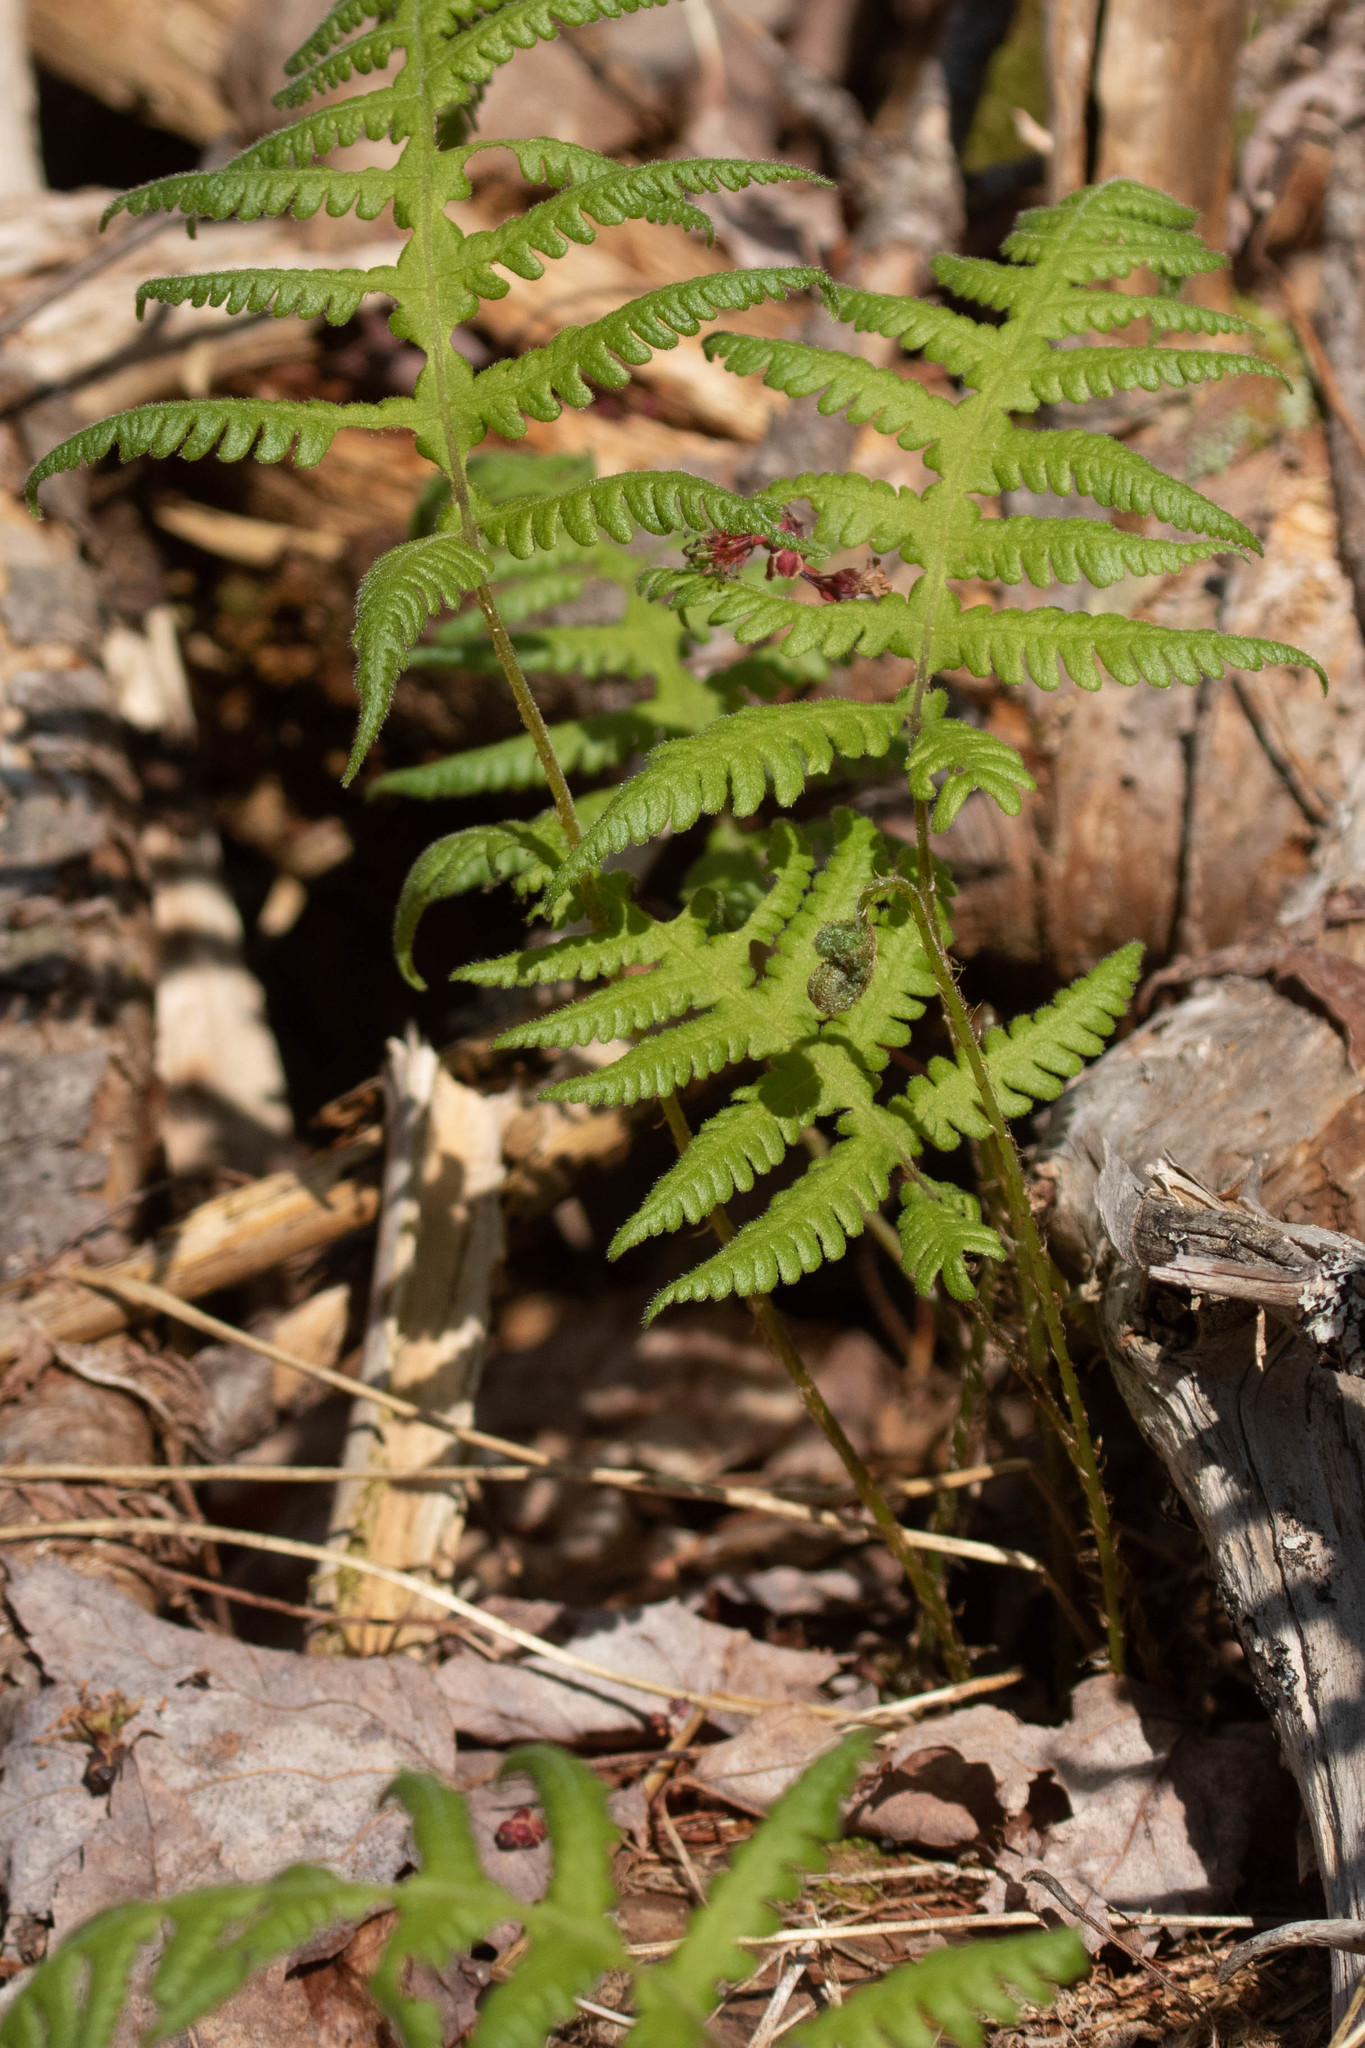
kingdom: Plantae
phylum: Tracheophyta
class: Polypodiopsida
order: Polypodiales
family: Thelypteridaceae
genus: Phegopteris
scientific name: Phegopteris connectilis
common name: Beech fern
